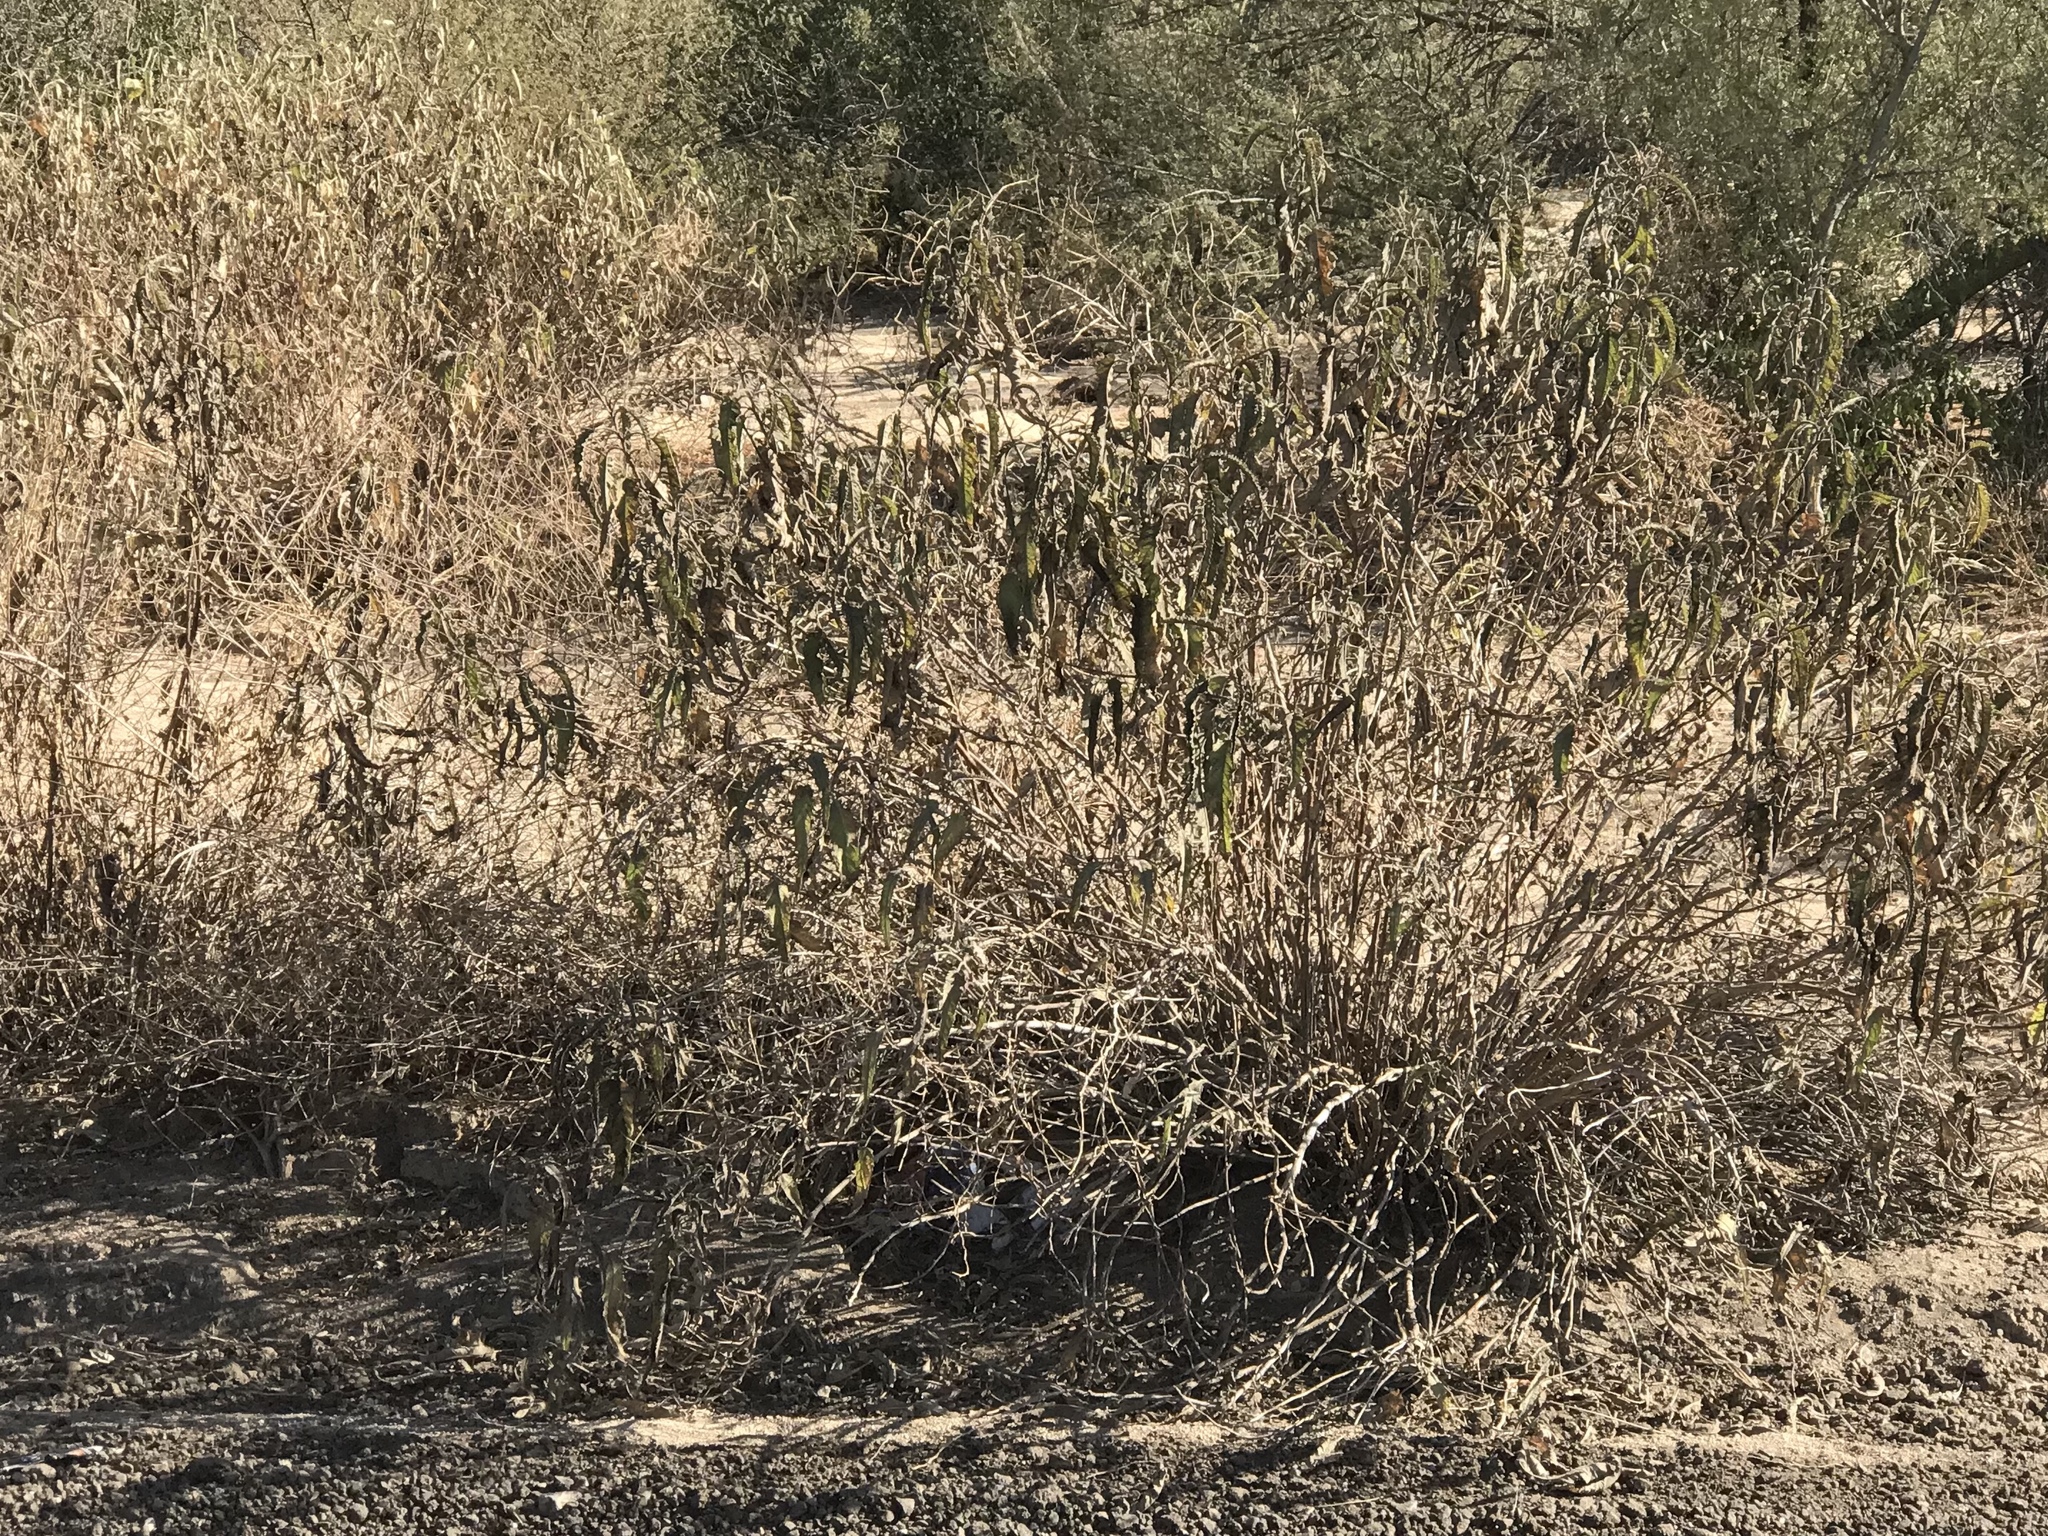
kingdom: Plantae
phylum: Tracheophyta
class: Magnoliopsida
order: Asterales
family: Asteraceae
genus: Ambrosia
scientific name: Ambrosia ambrosioides
